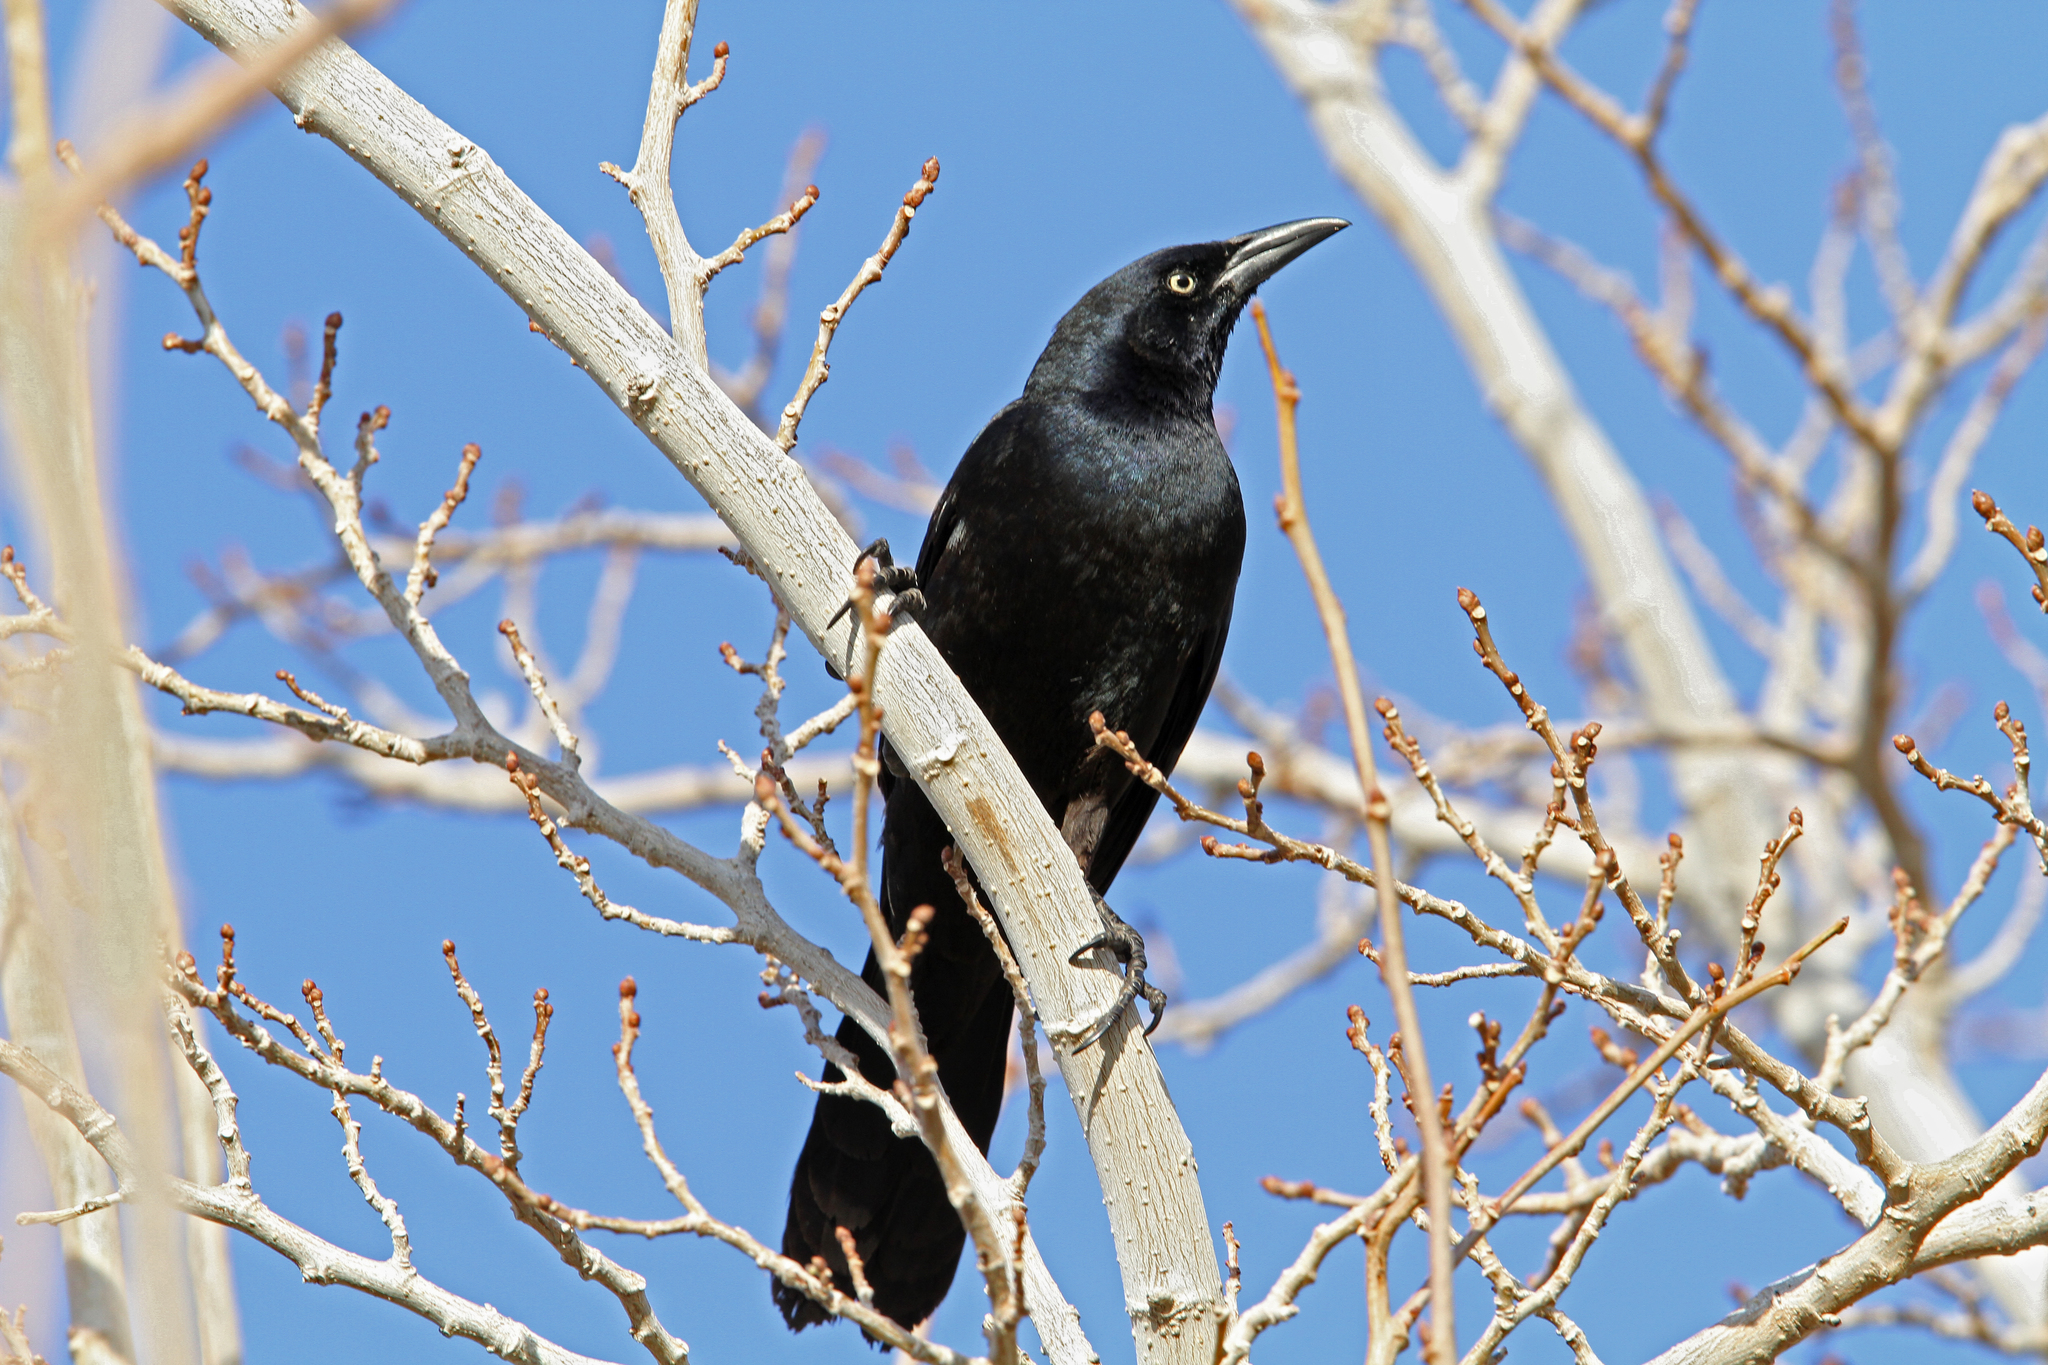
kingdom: Animalia
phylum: Chordata
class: Aves
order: Passeriformes
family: Icteridae
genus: Quiscalus
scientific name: Quiscalus mexicanus
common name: Great-tailed grackle
